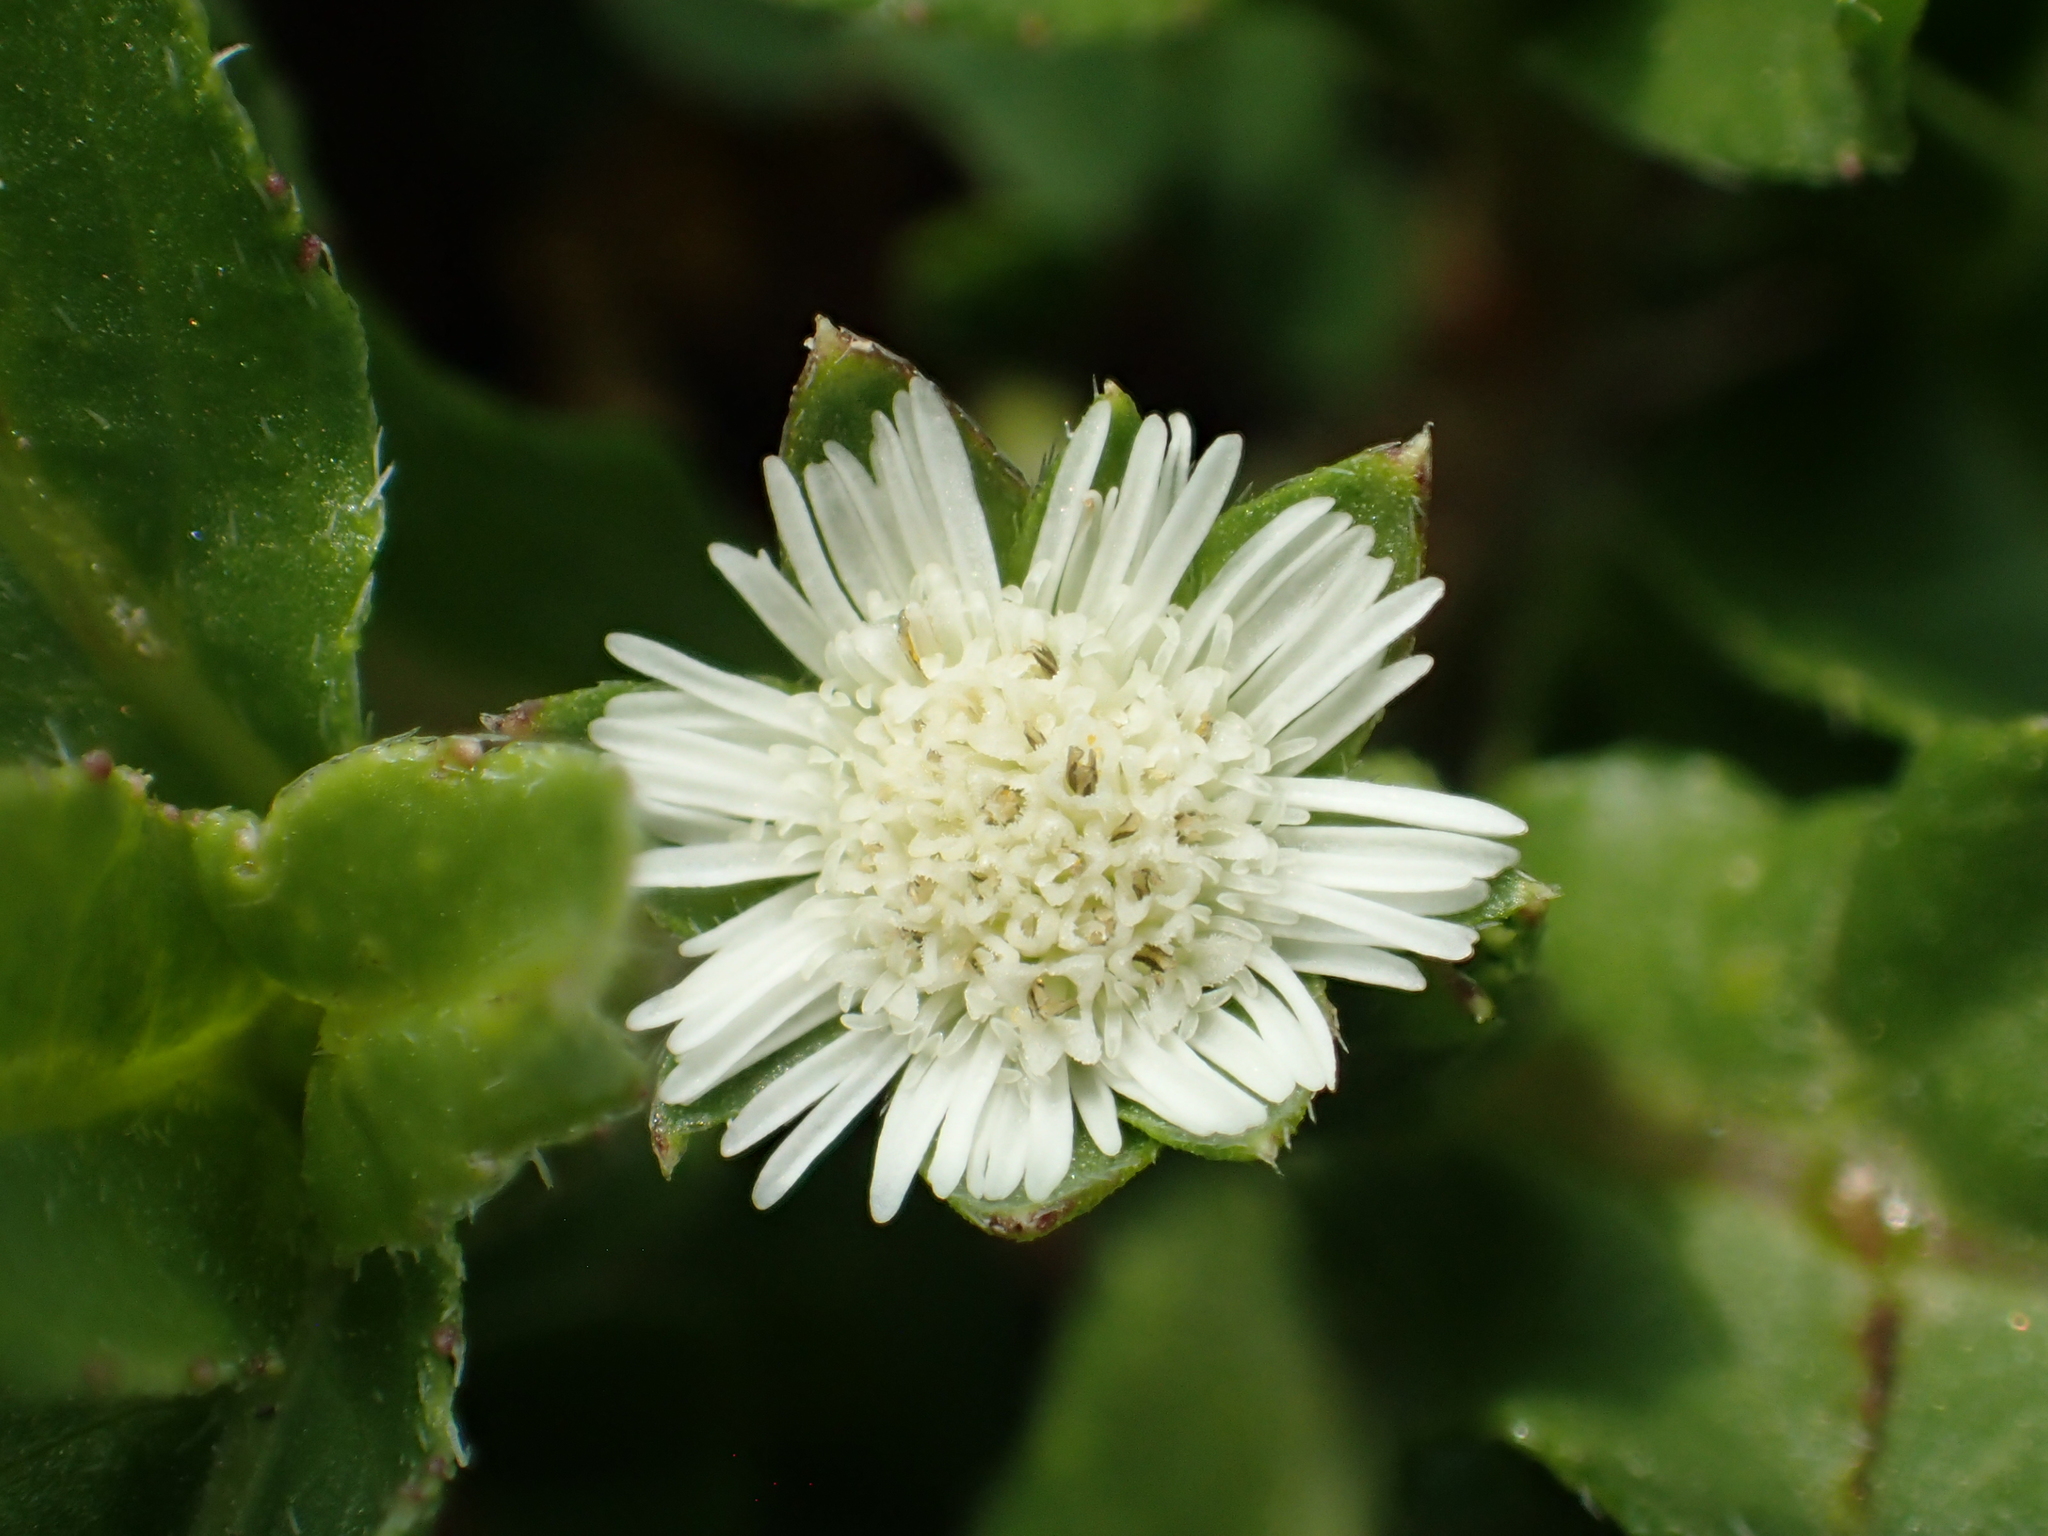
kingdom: Plantae
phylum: Tracheophyta
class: Magnoliopsida
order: Asterales
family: Asteraceae
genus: Eclipta
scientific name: Eclipta prostrata
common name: False daisy
